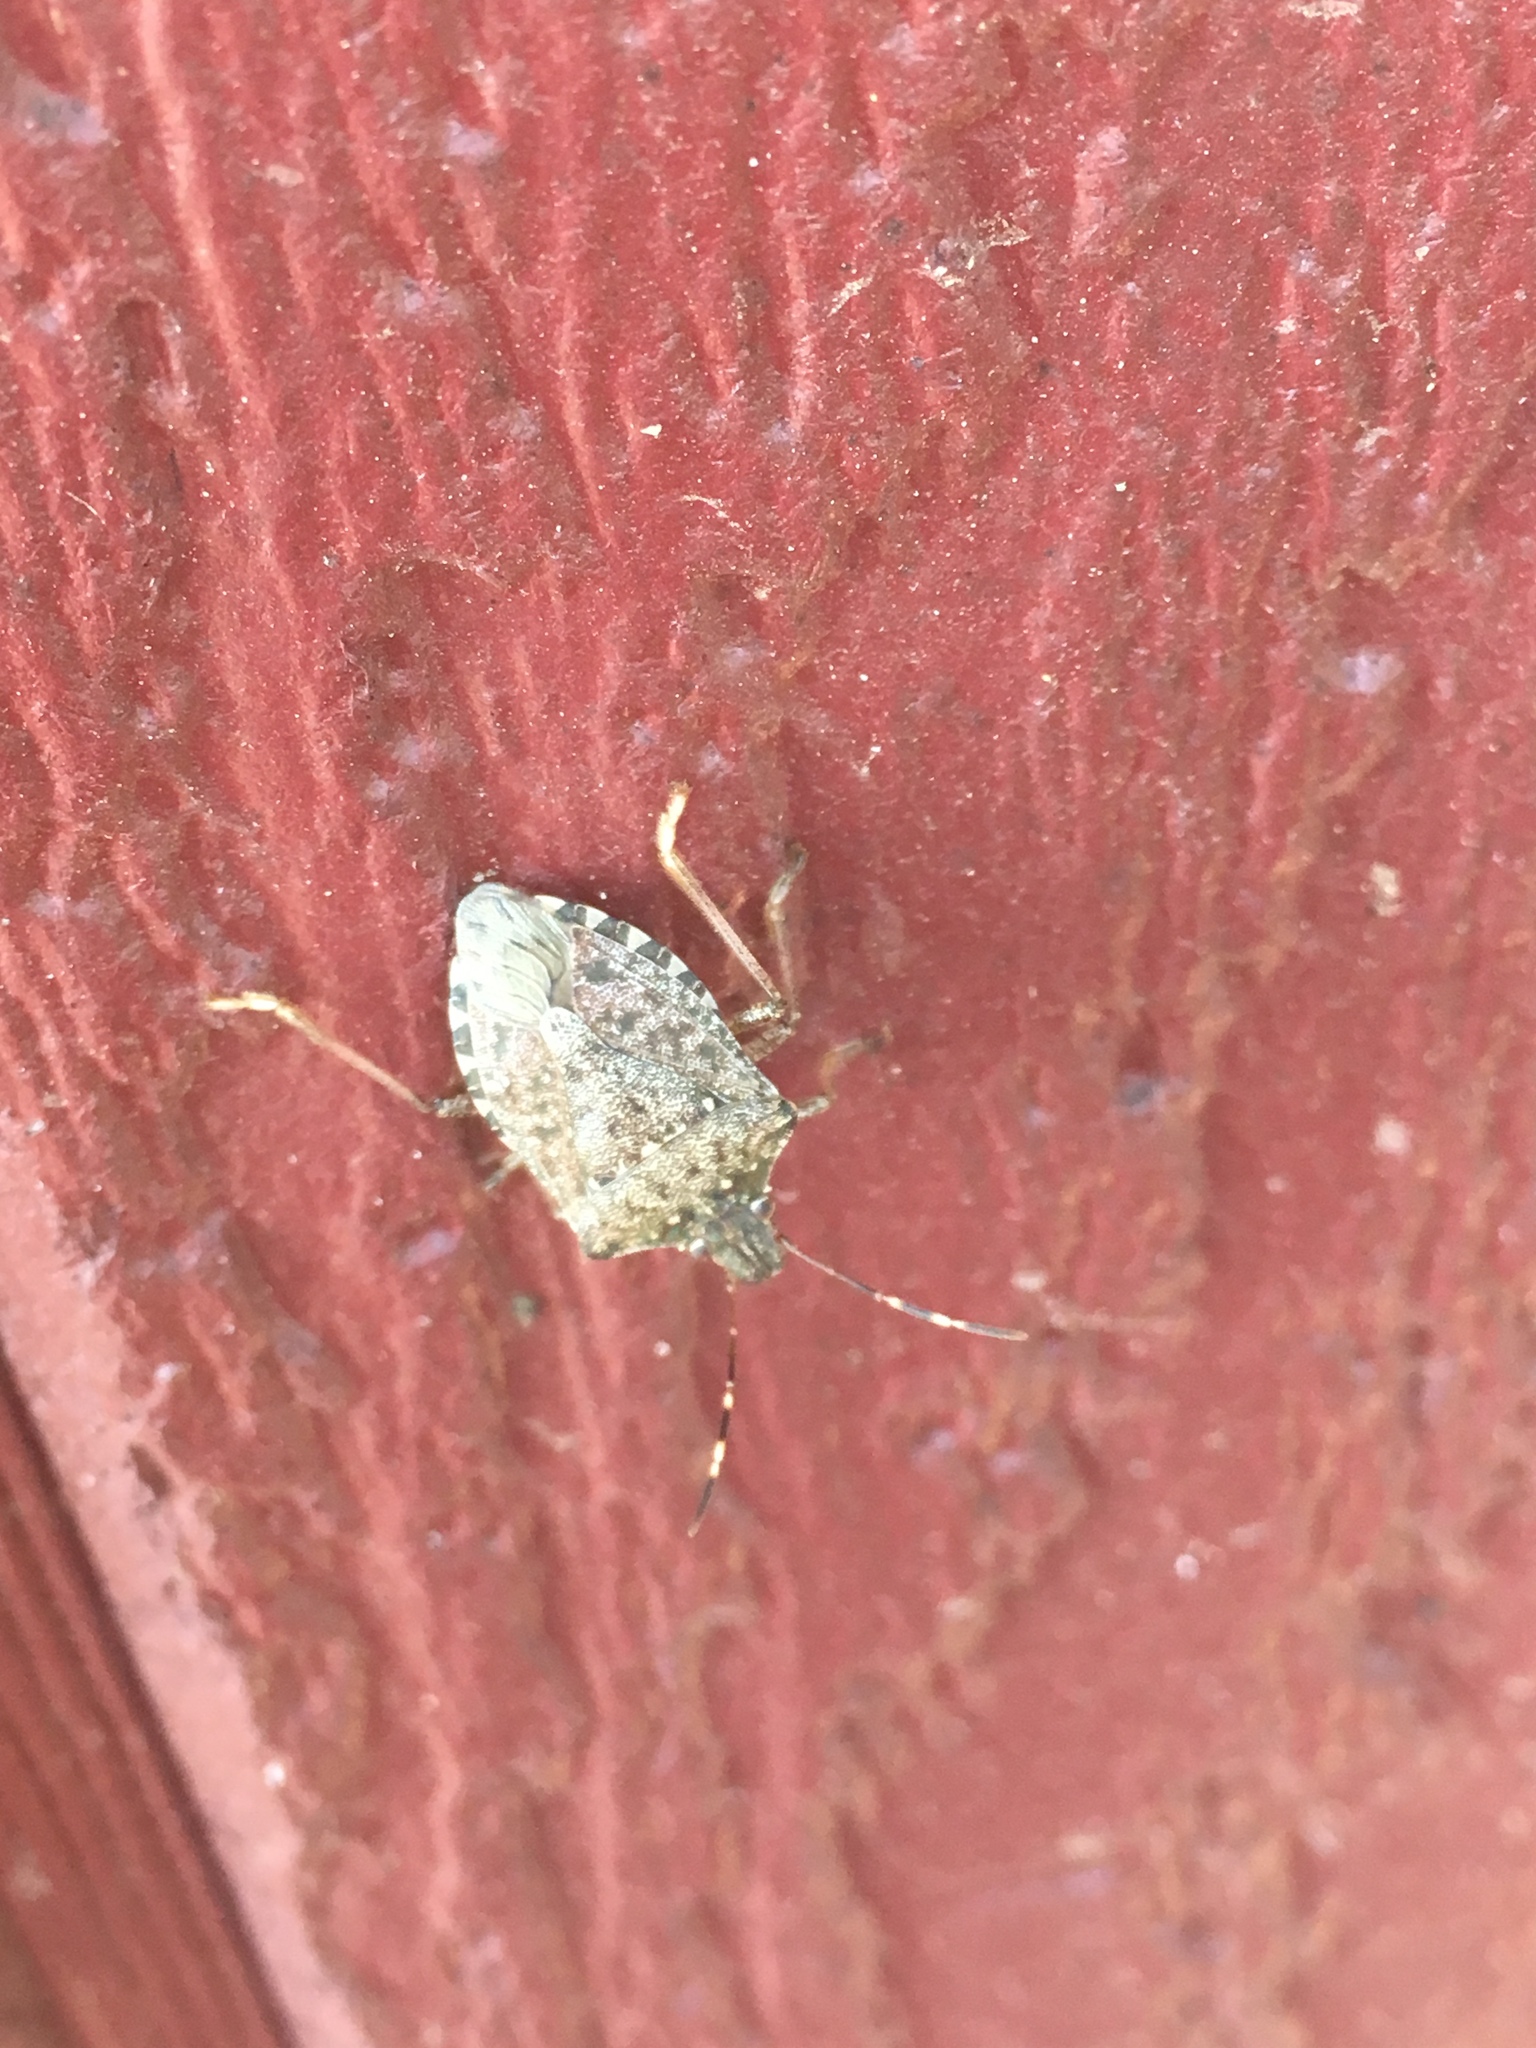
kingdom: Animalia
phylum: Arthropoda
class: Insecta
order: Hemiptera
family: Pentatomidae
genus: Halyomorpha
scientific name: Halyomorpha halys
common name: Brown marmorated stink bug
